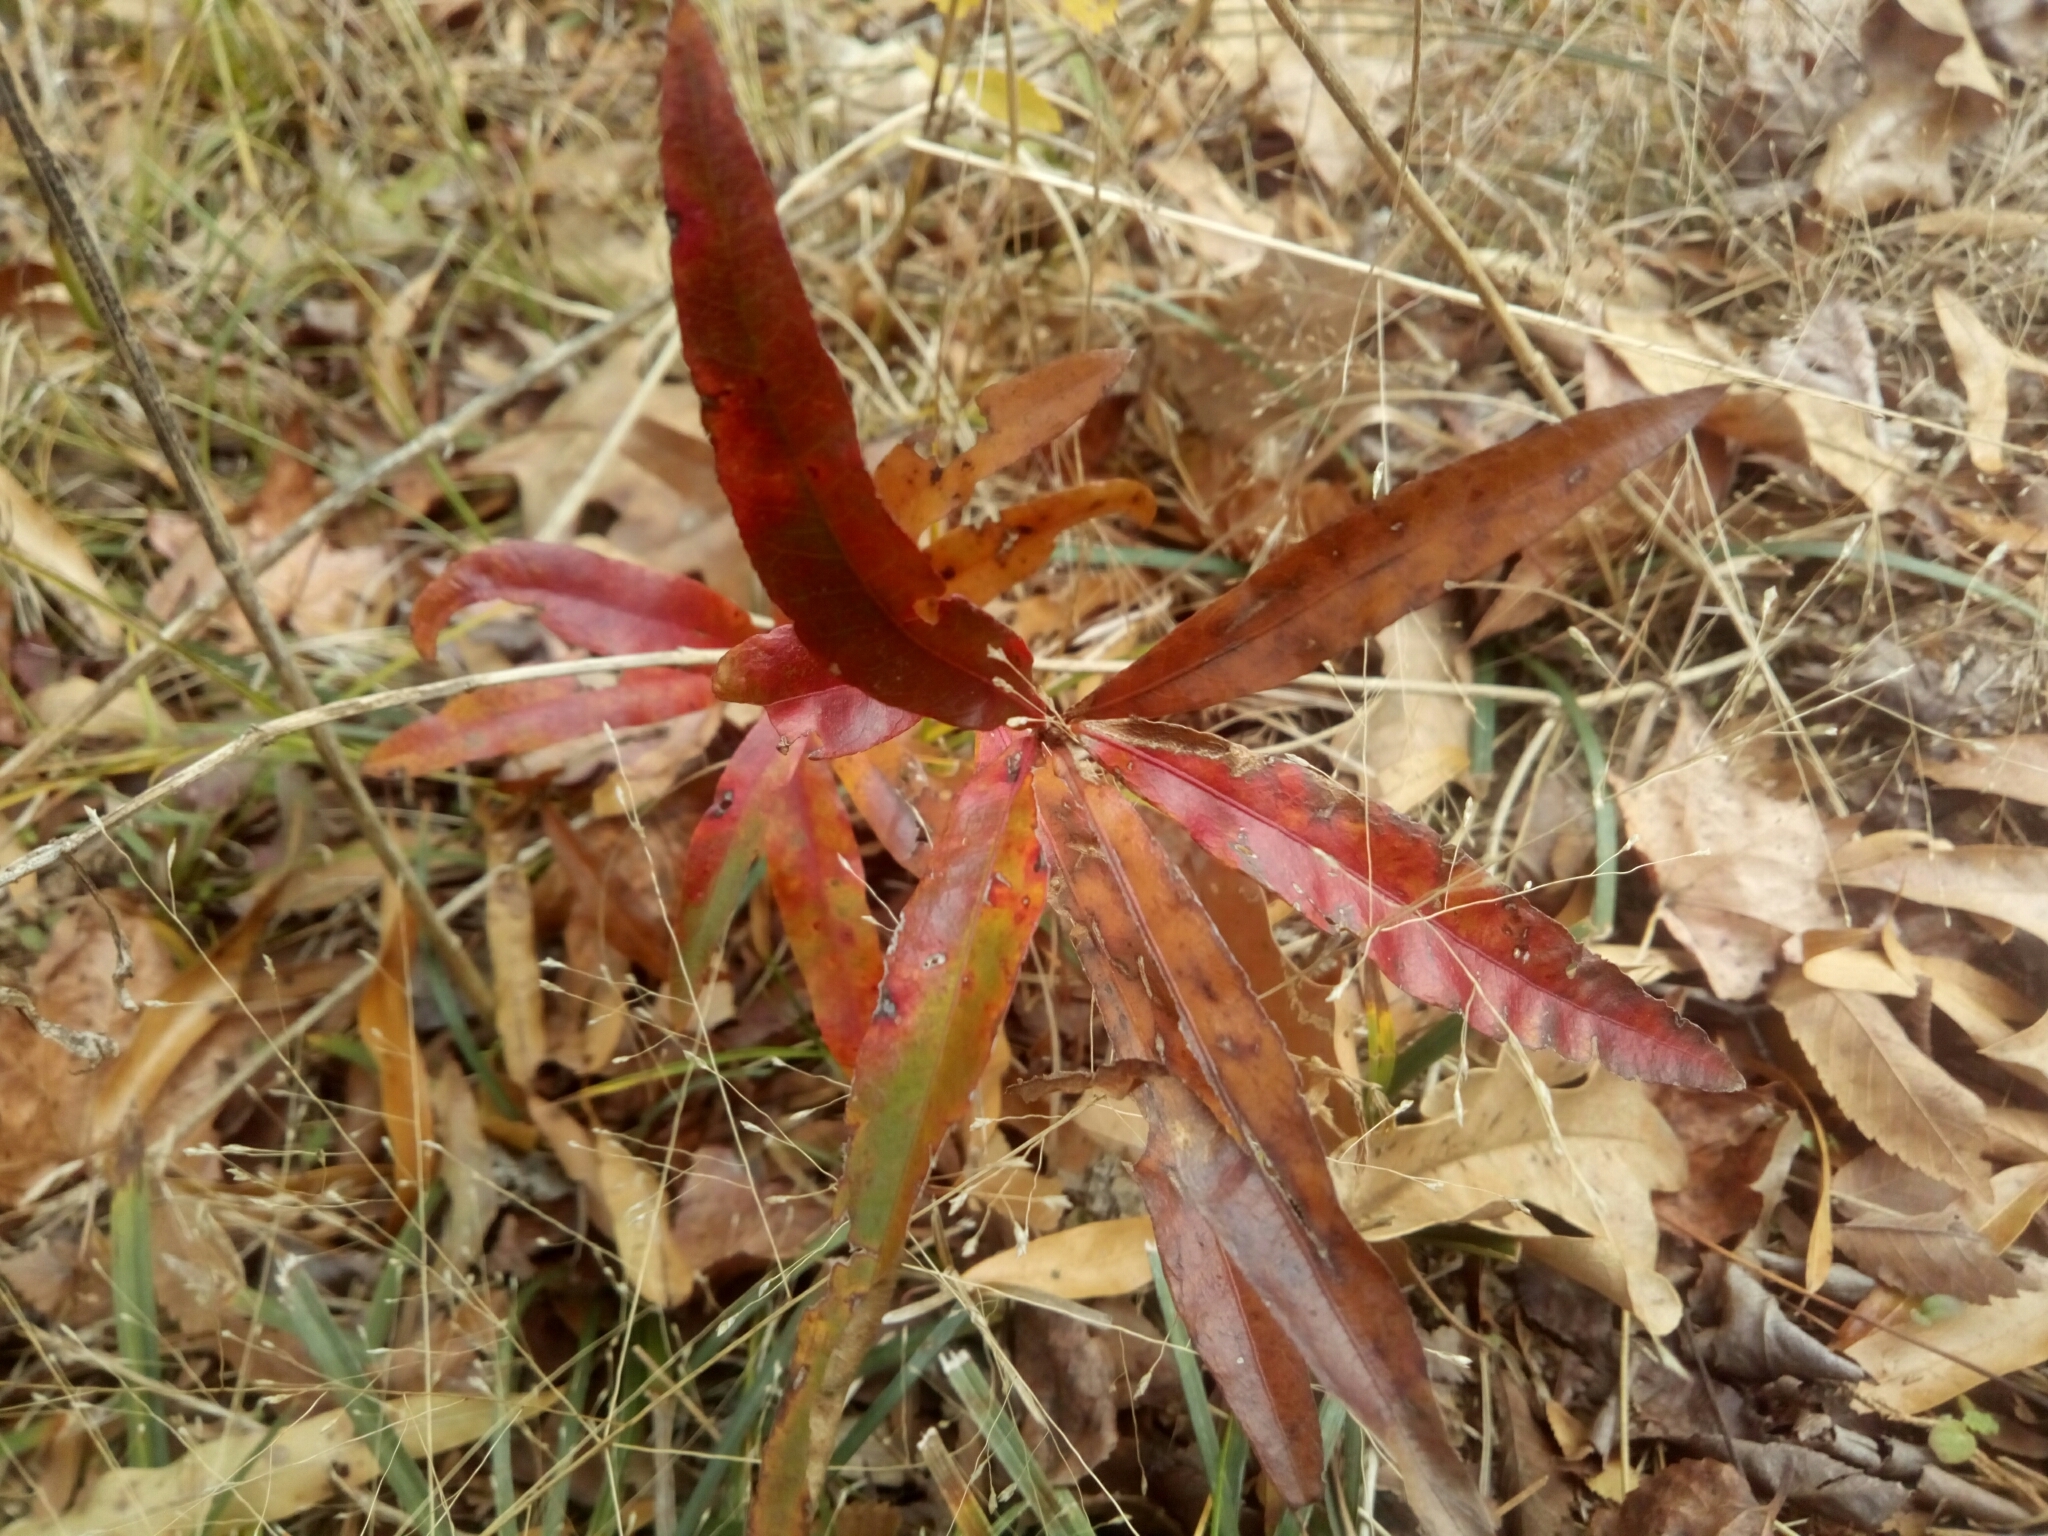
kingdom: Plantae
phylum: Tracheophyta
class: Magnoliopsida
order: Fagales
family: Fagaceae
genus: Quercus
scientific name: Quercus phellos
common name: Willow oak
